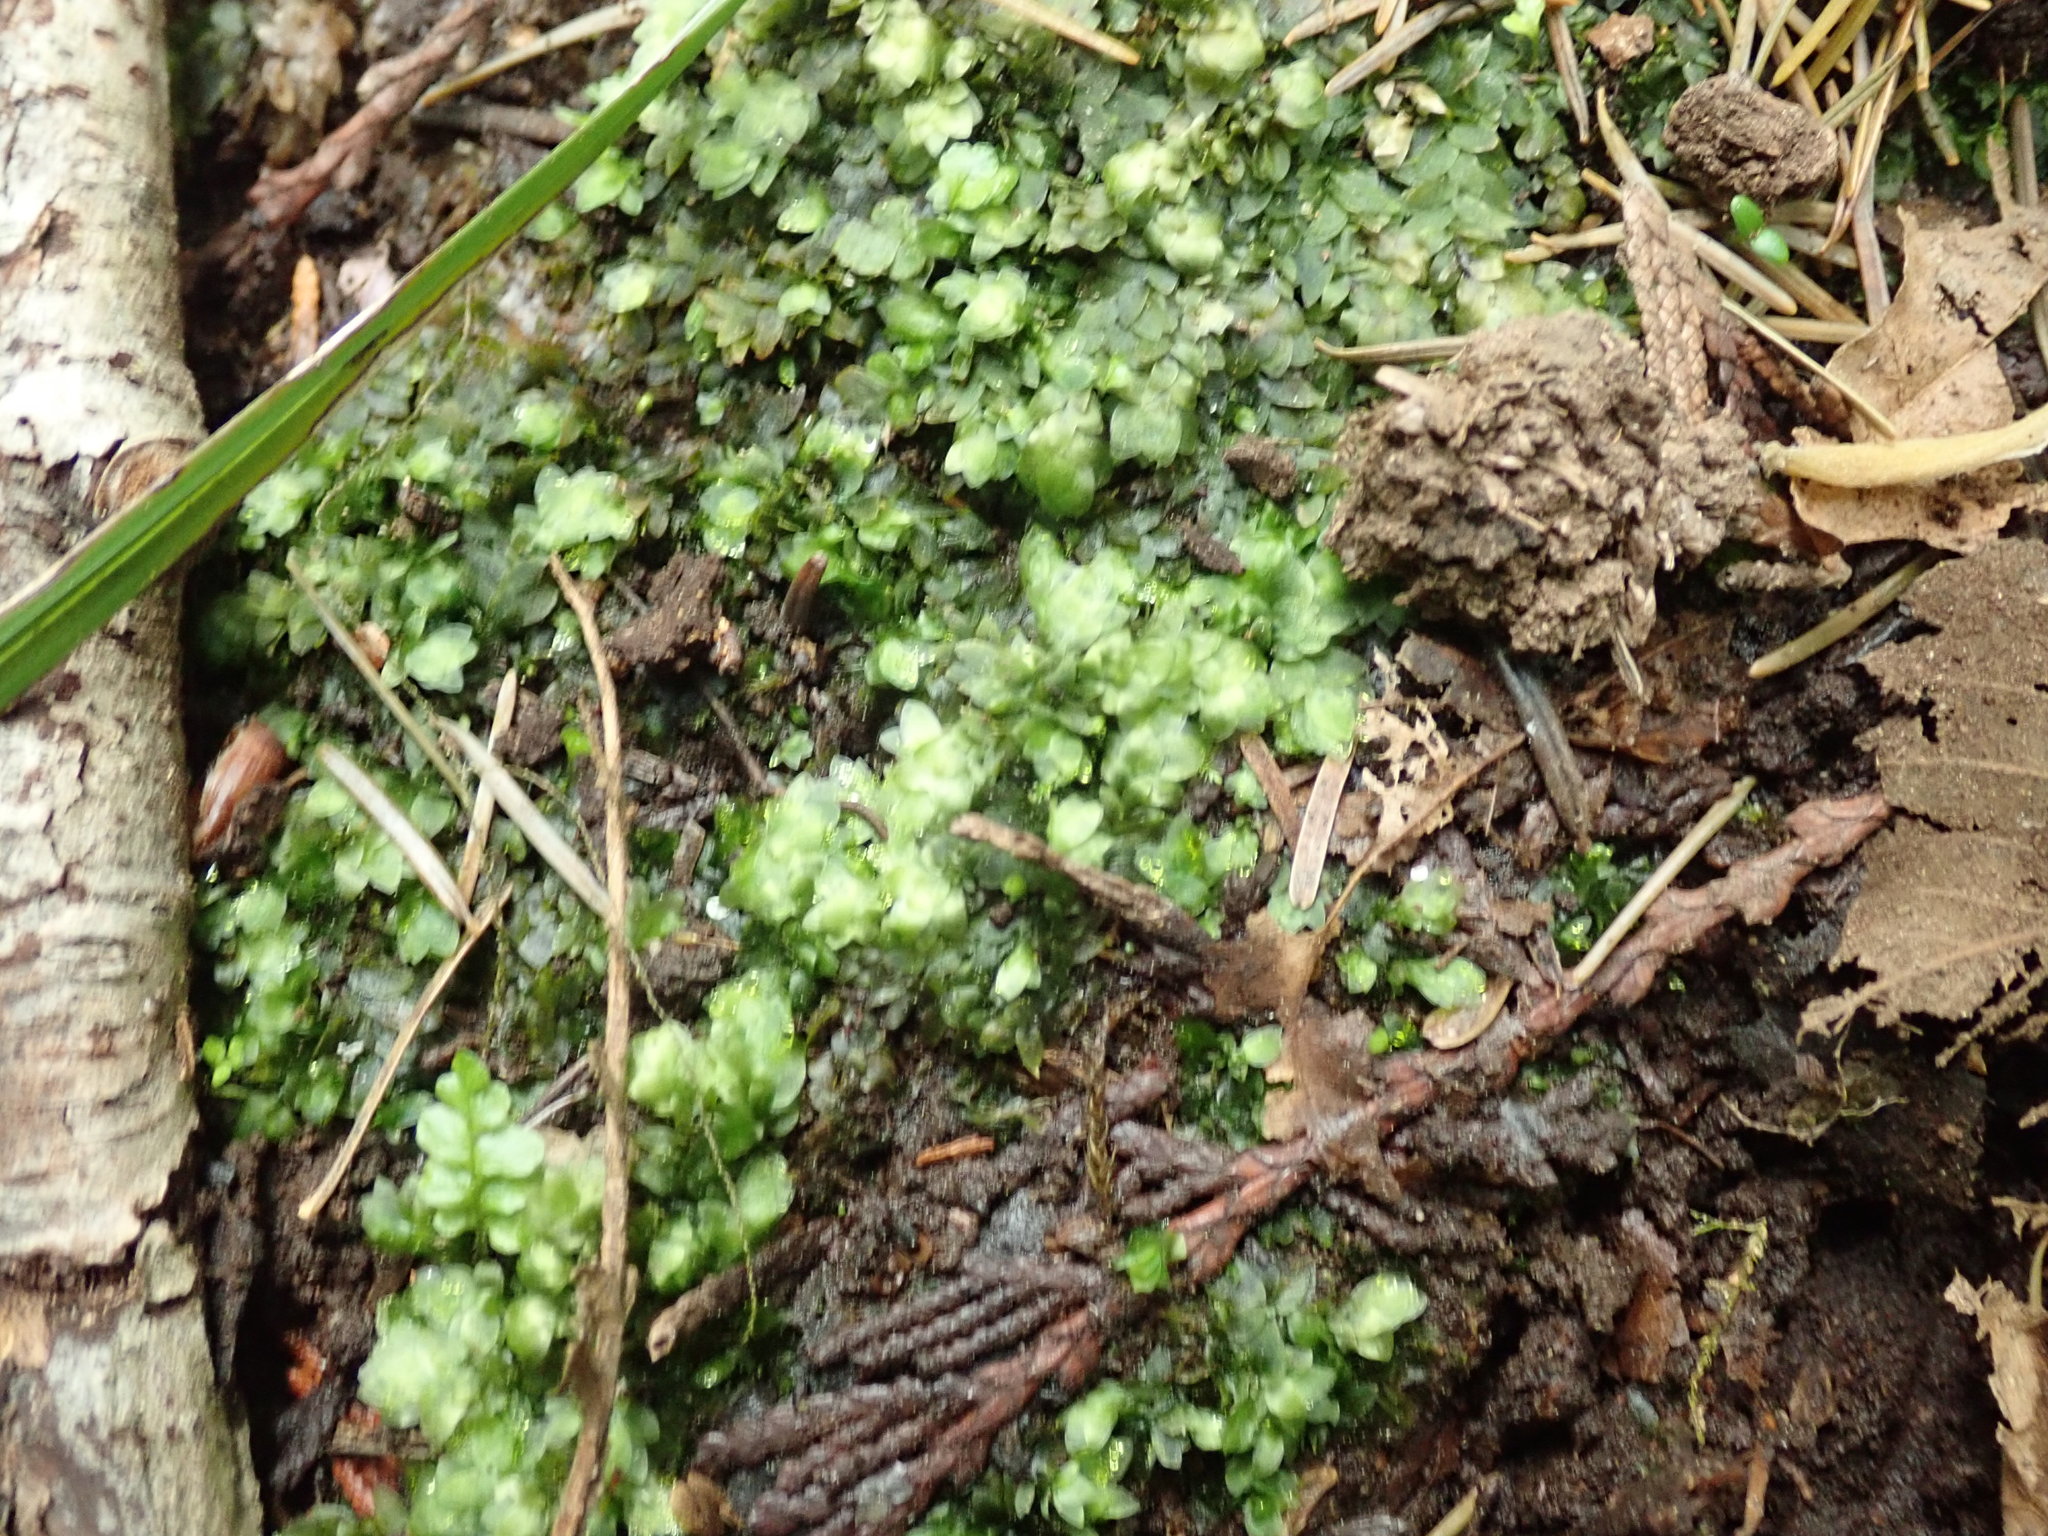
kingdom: Plantae
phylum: Bryophyta
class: Bryopsida
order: Hookeriales
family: Hookeriaceae
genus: Hookeria
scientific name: Hookeria lucens
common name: Shining hookeria
